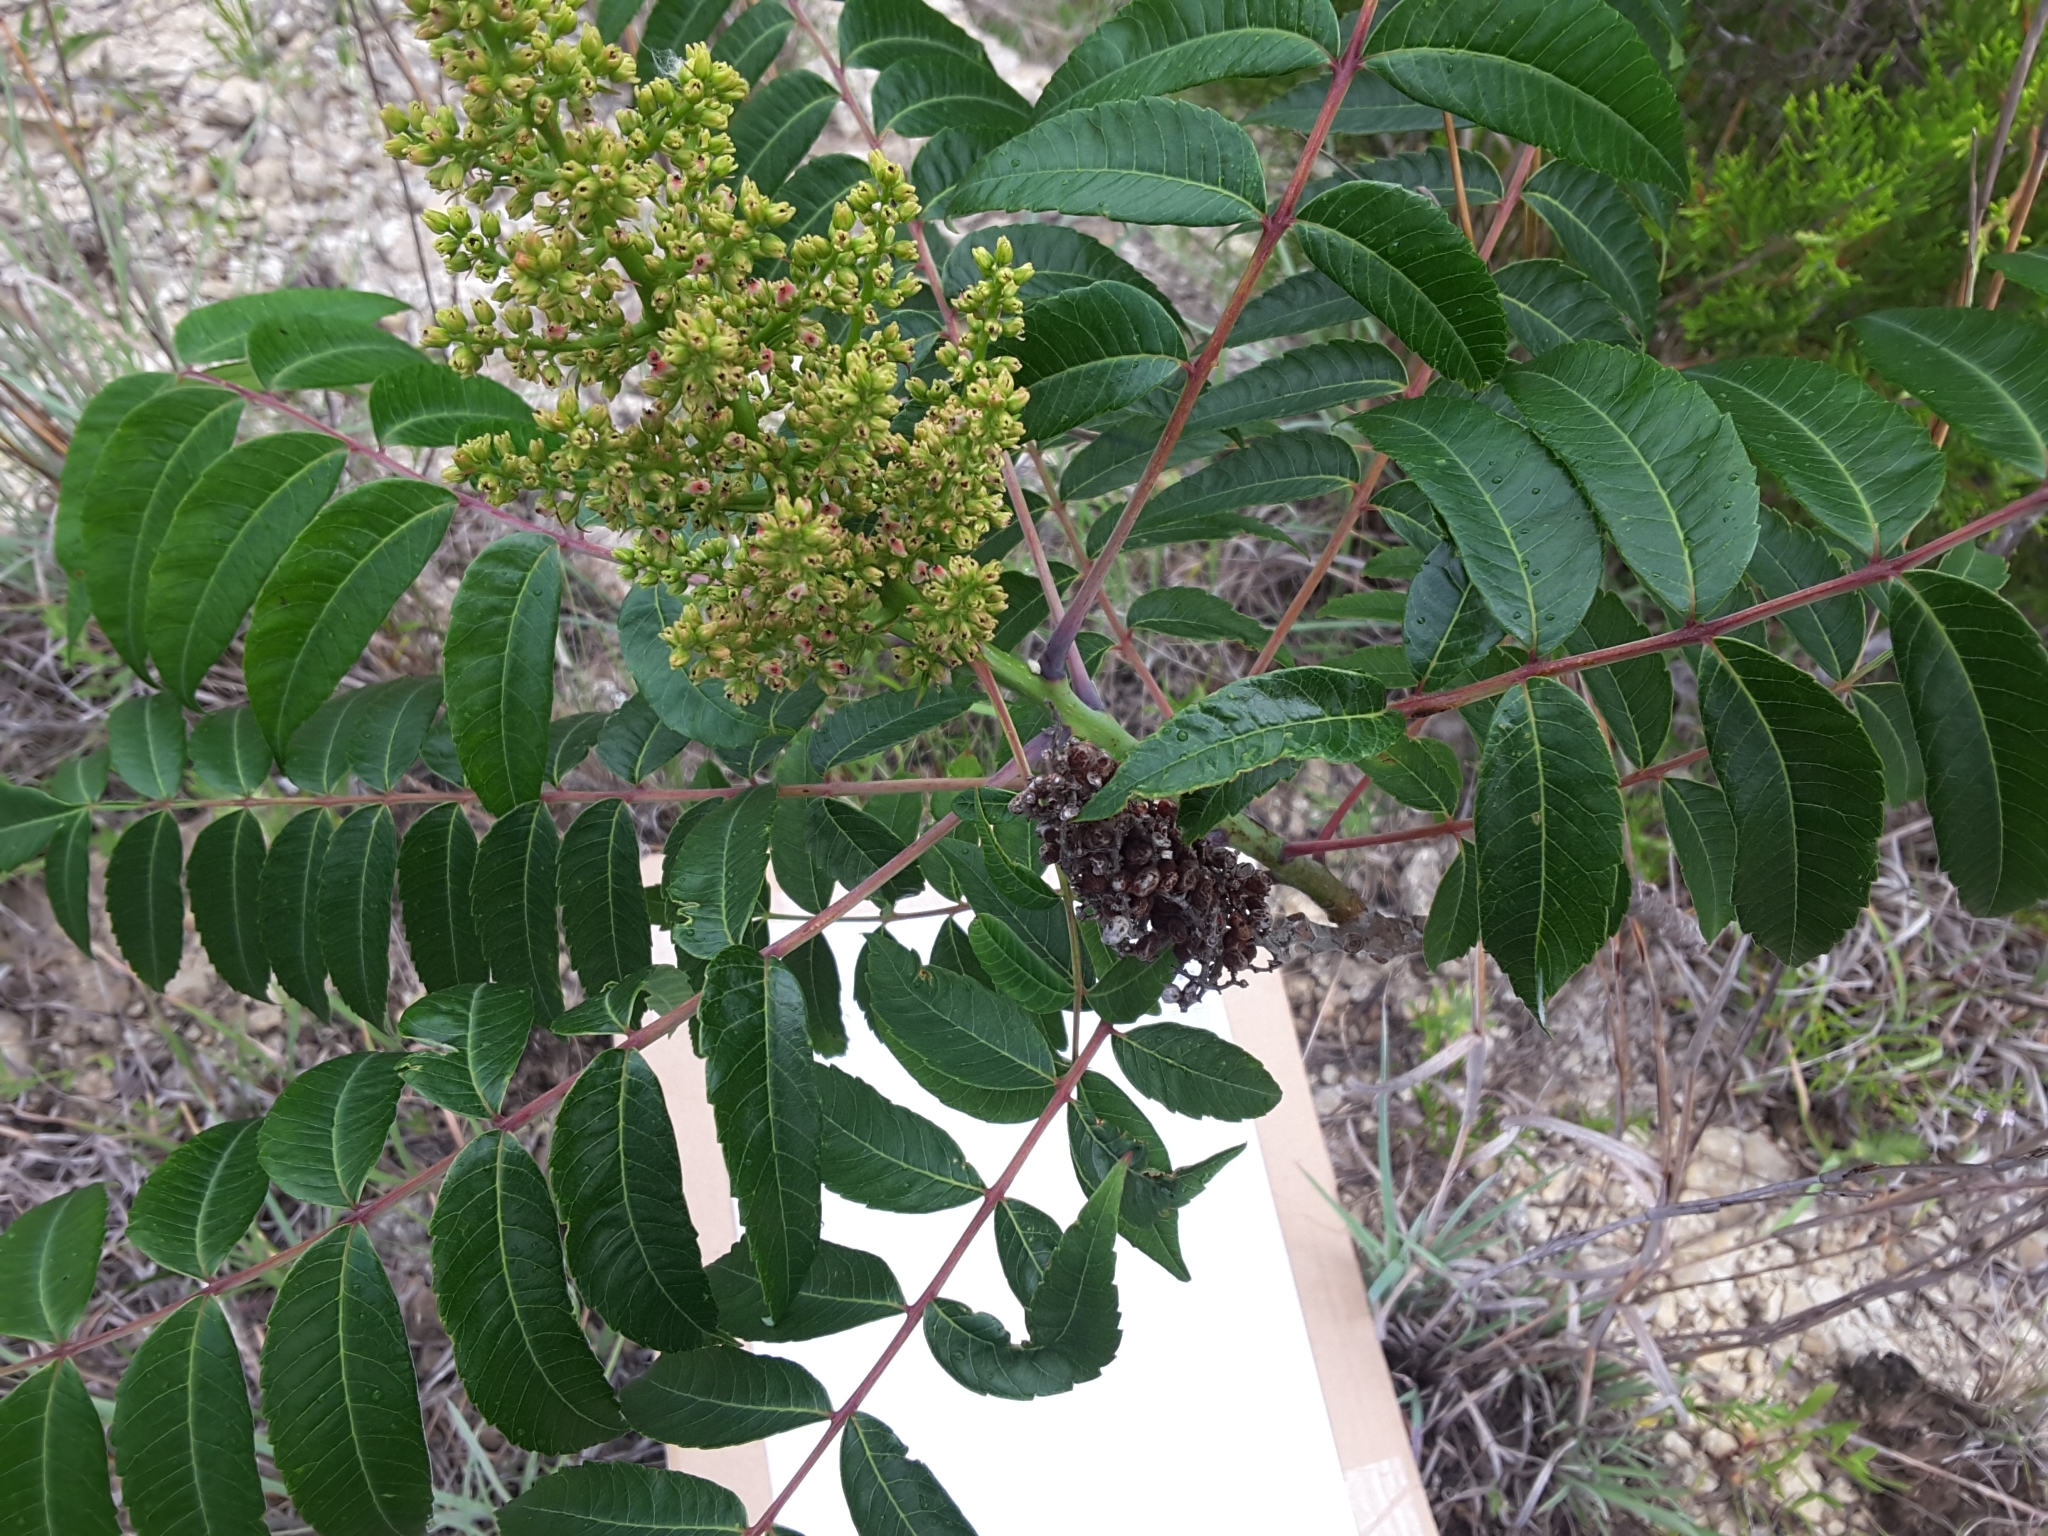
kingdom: Plantae
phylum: Tracheophyta
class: Magnoliopsida
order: Sapindales
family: Anacardiaceae
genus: Rhus
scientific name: Rhus glabra
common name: Scarlet sumac
